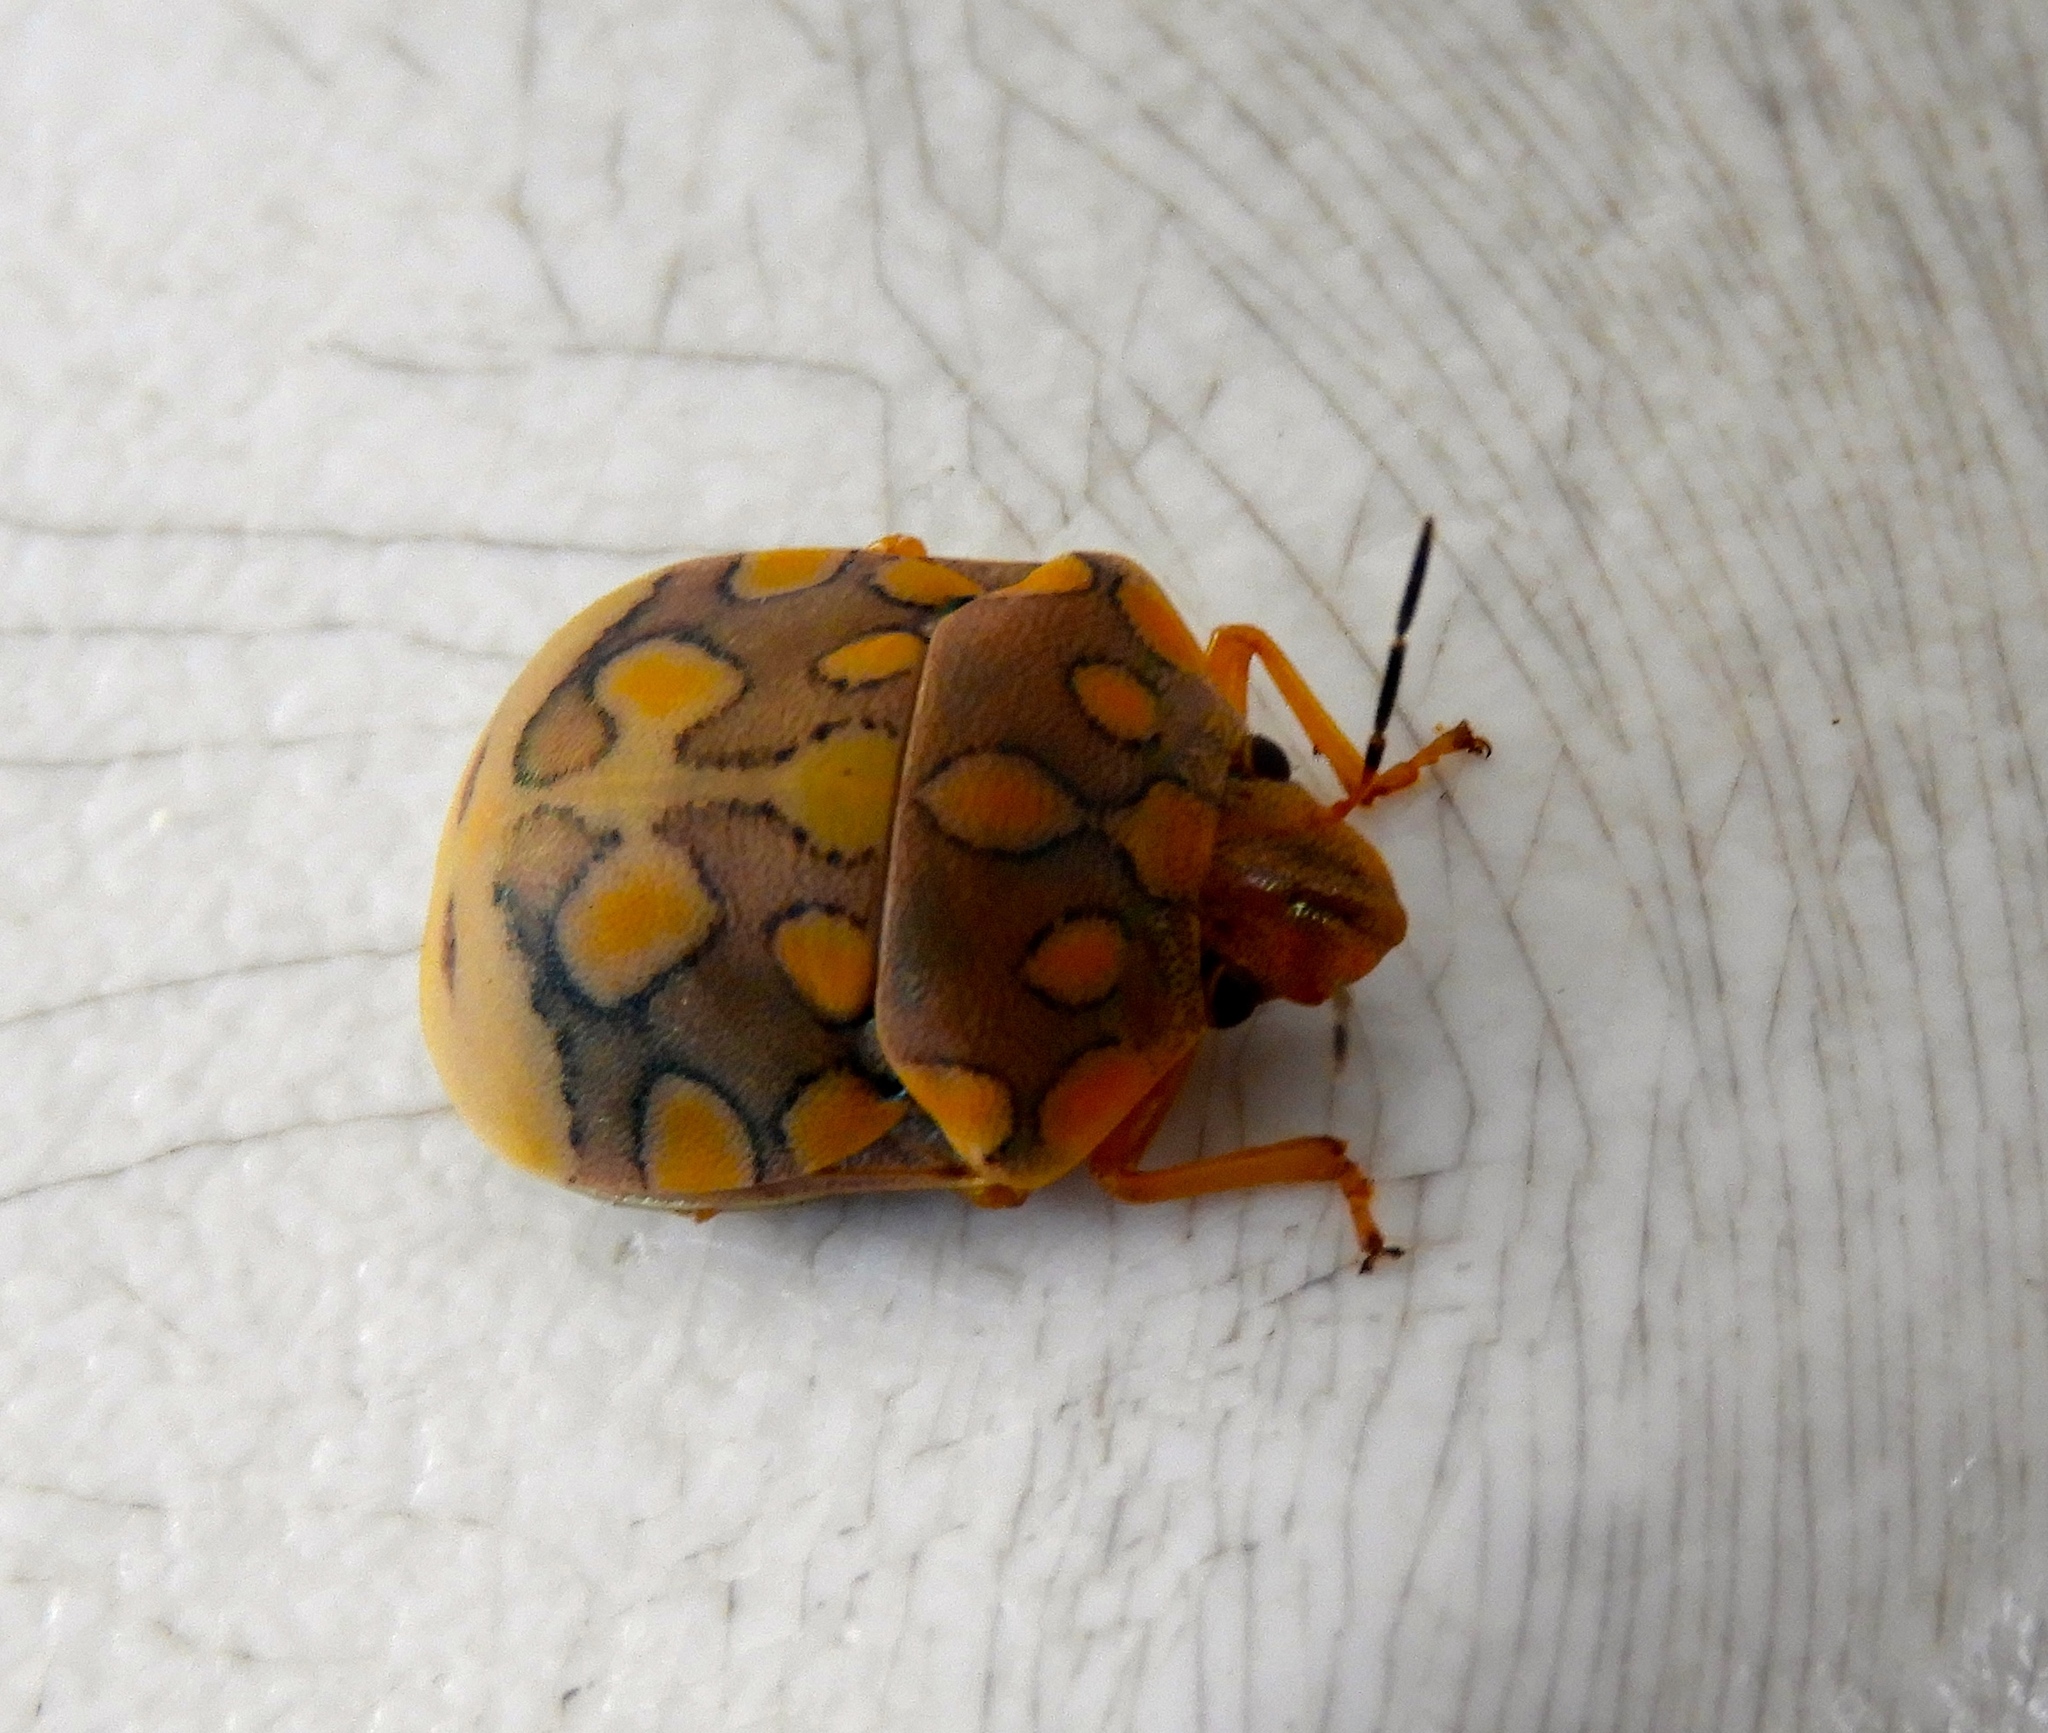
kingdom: Animalia
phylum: Arthropoda
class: Insecta
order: Hemiptera
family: Scutelleridae
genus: Pachycoris
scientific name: Pachycoris torridus
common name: Torrid jewel bug
